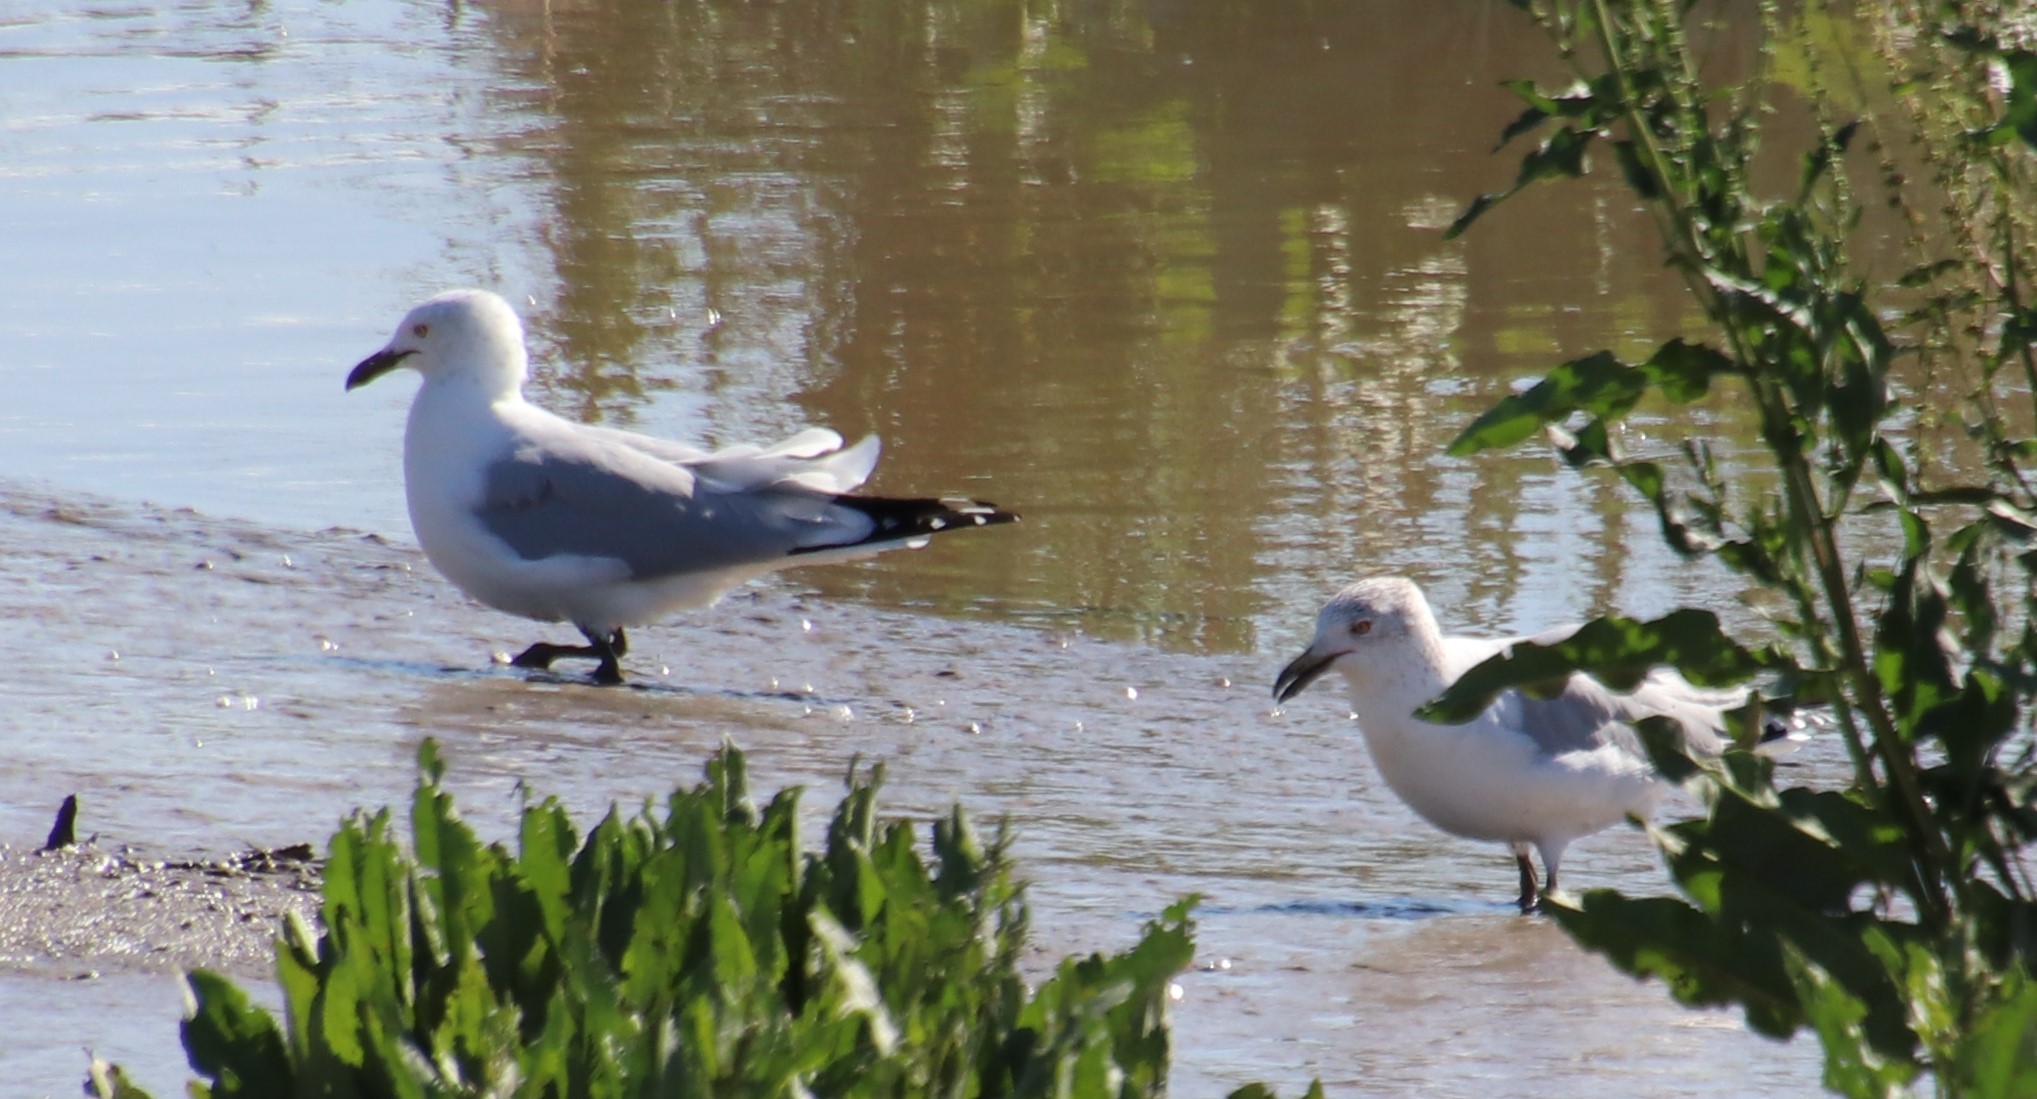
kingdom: Animalia
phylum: Chordata
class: Aves
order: Charadriiformes
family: Laridae
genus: Larus
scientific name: Larus delawarensis
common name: Ring-billed gull
